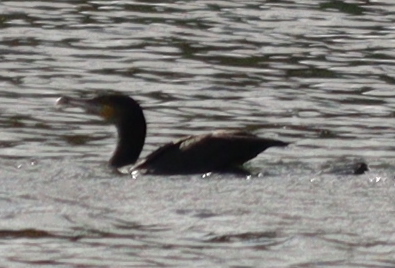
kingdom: Animalia
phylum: Chordata
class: Aves
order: Suliformes
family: Phalacrocoracidae
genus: Phalacrocorax
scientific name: Phalacrocorax carbo
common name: Great cormorant
